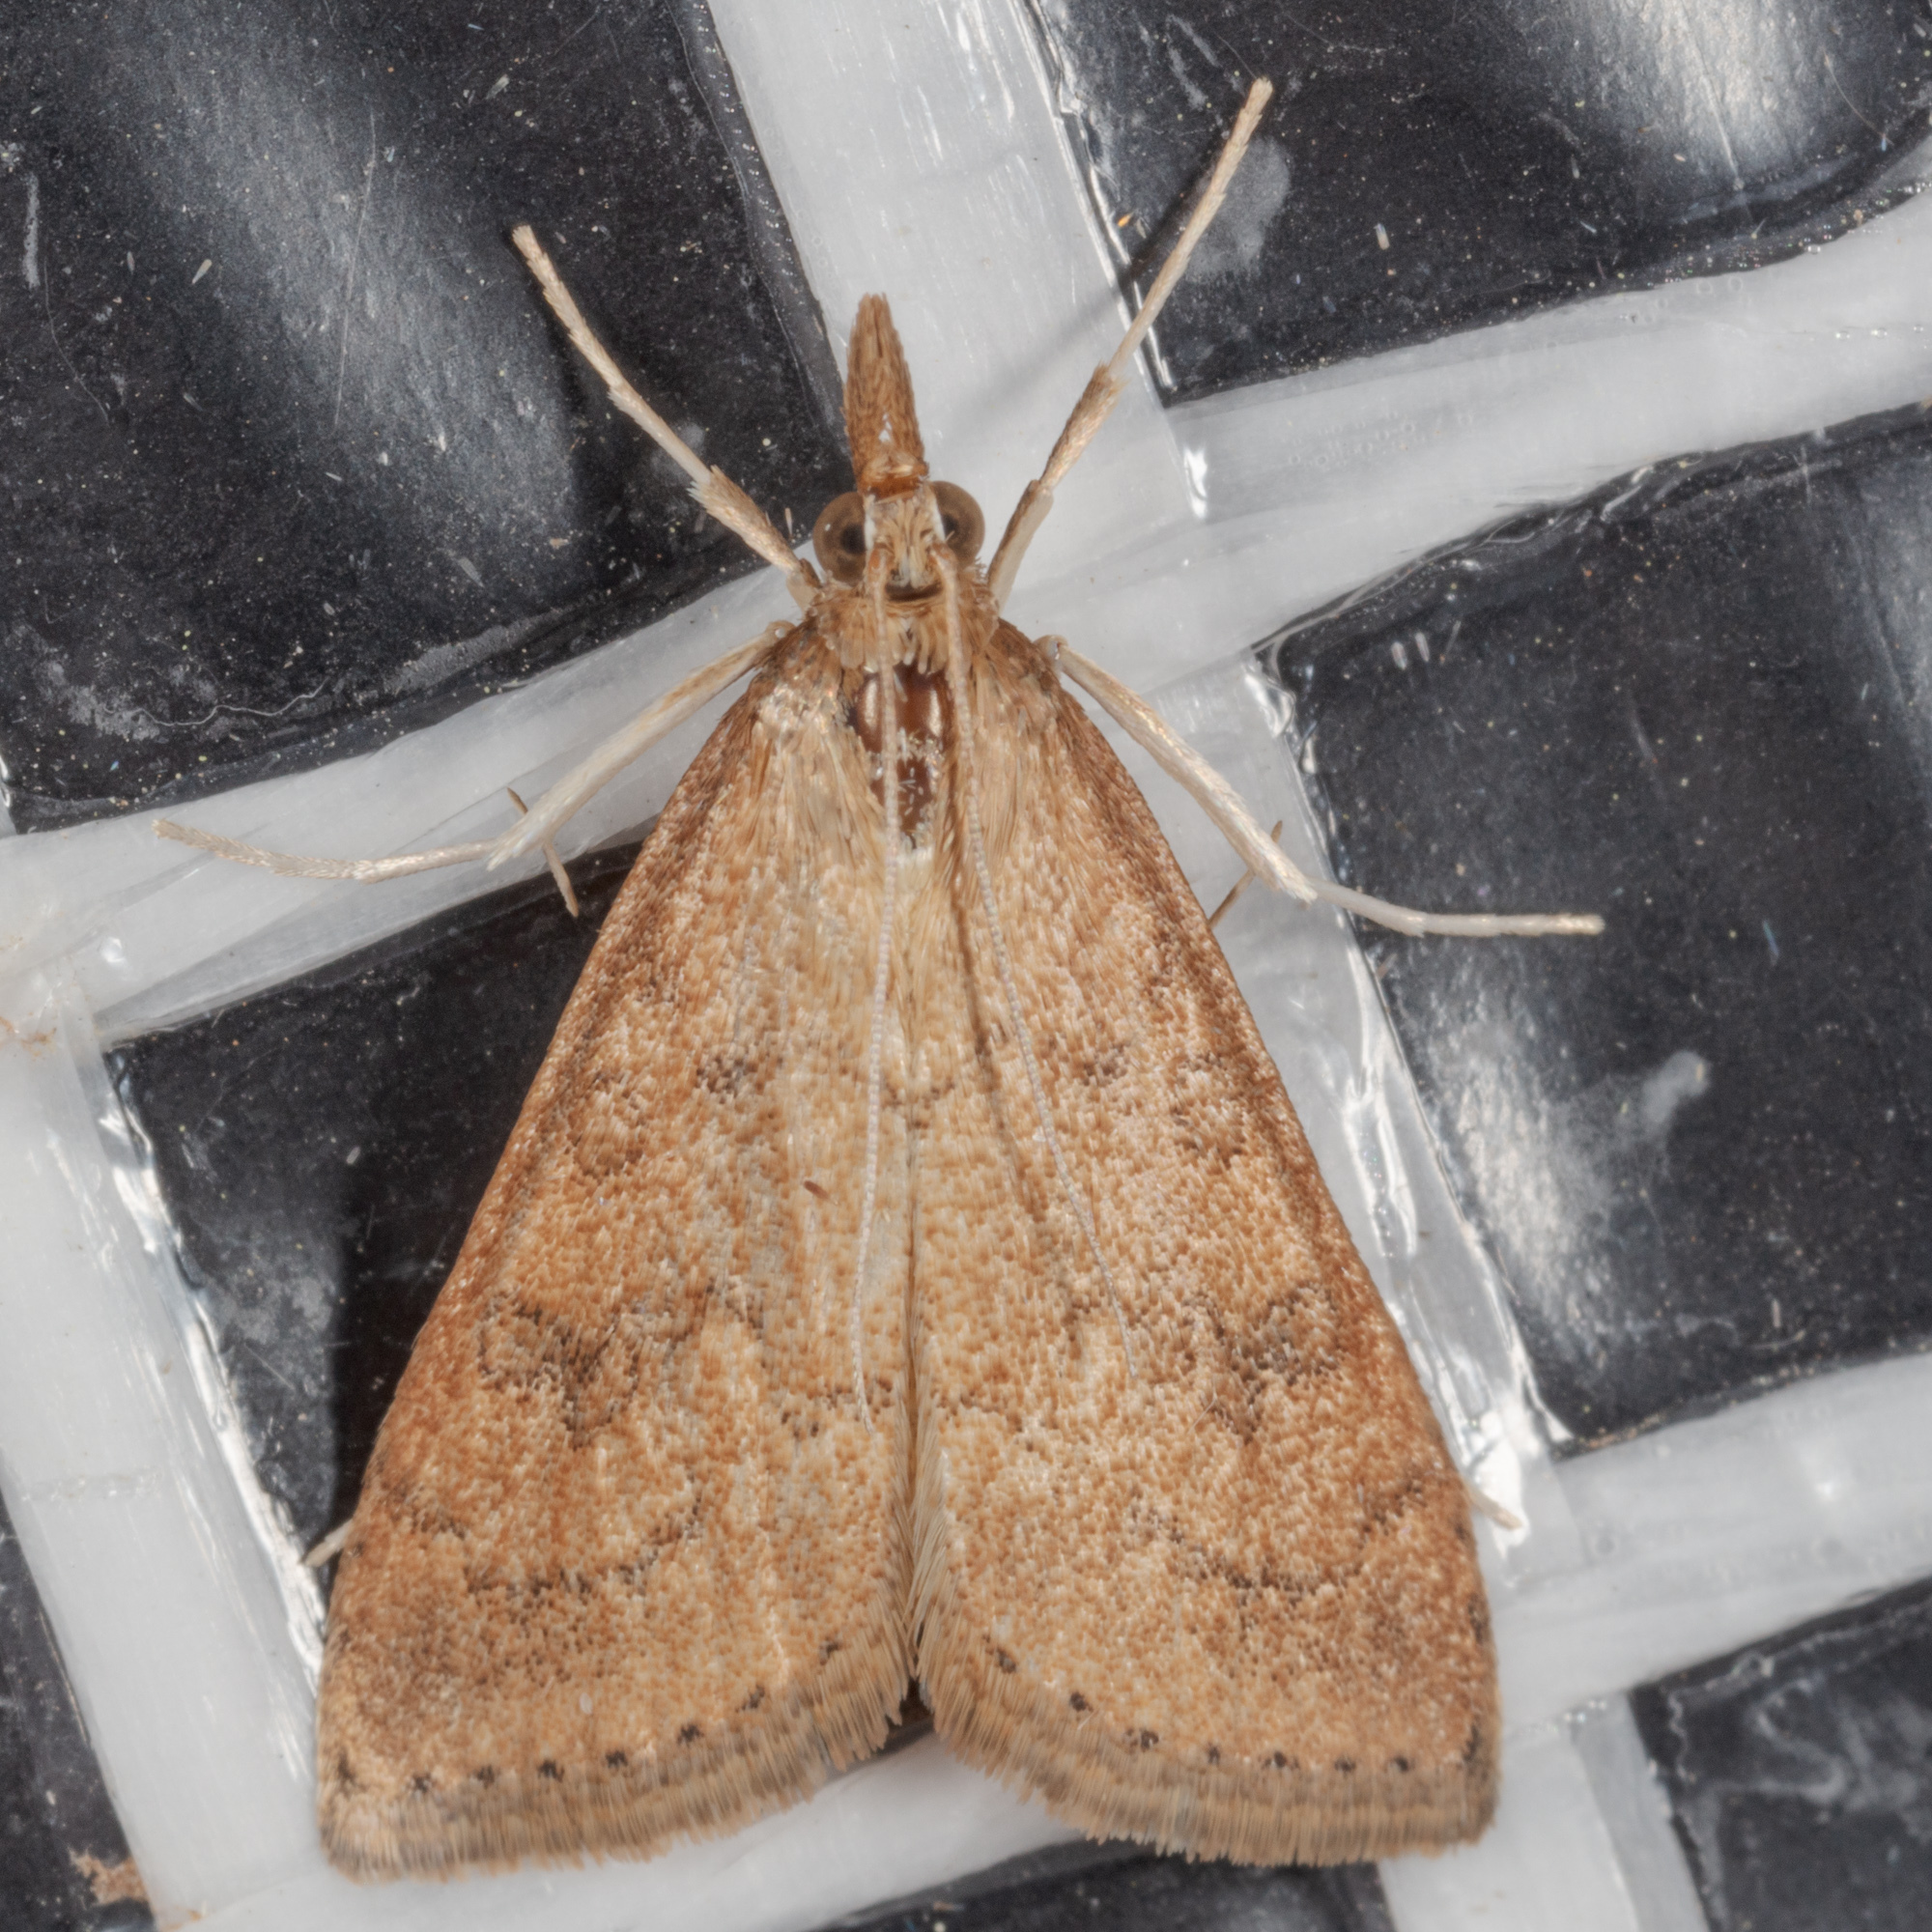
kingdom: Animalia
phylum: Arthropoda
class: Insecta
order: Lepidoptera
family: Crambidae
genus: Udea
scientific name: Udea rubigalis
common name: Celery leaftier moth
